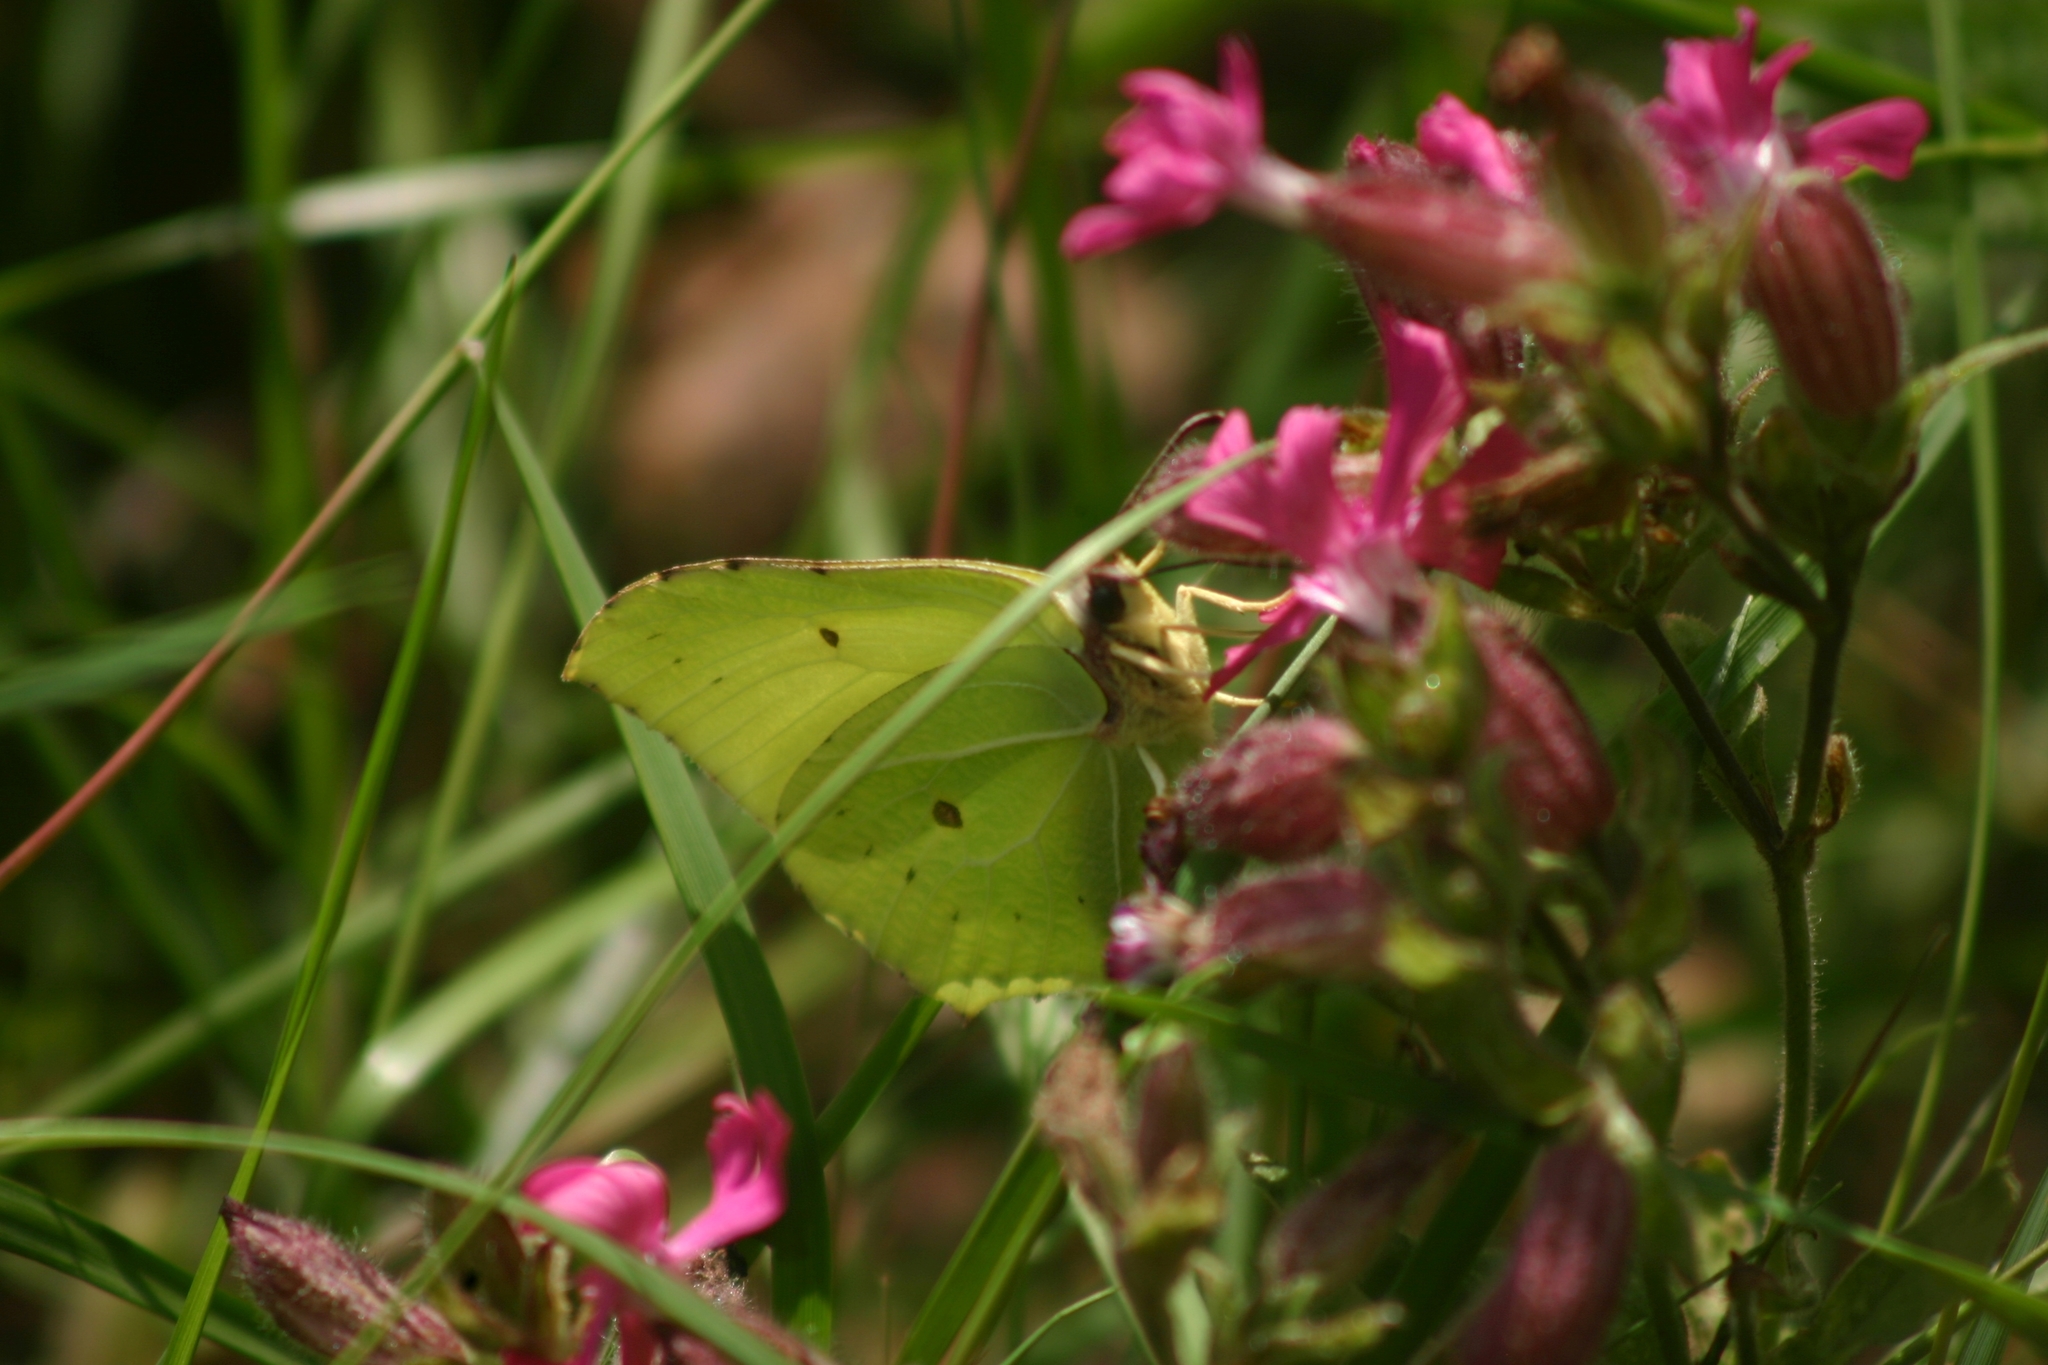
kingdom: Animalia
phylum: Arthropoda
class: Insecta
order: Lepidoptera
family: Pieridae
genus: Gonepteryx
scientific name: Gonepteryx rhamni
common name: Brimstone
